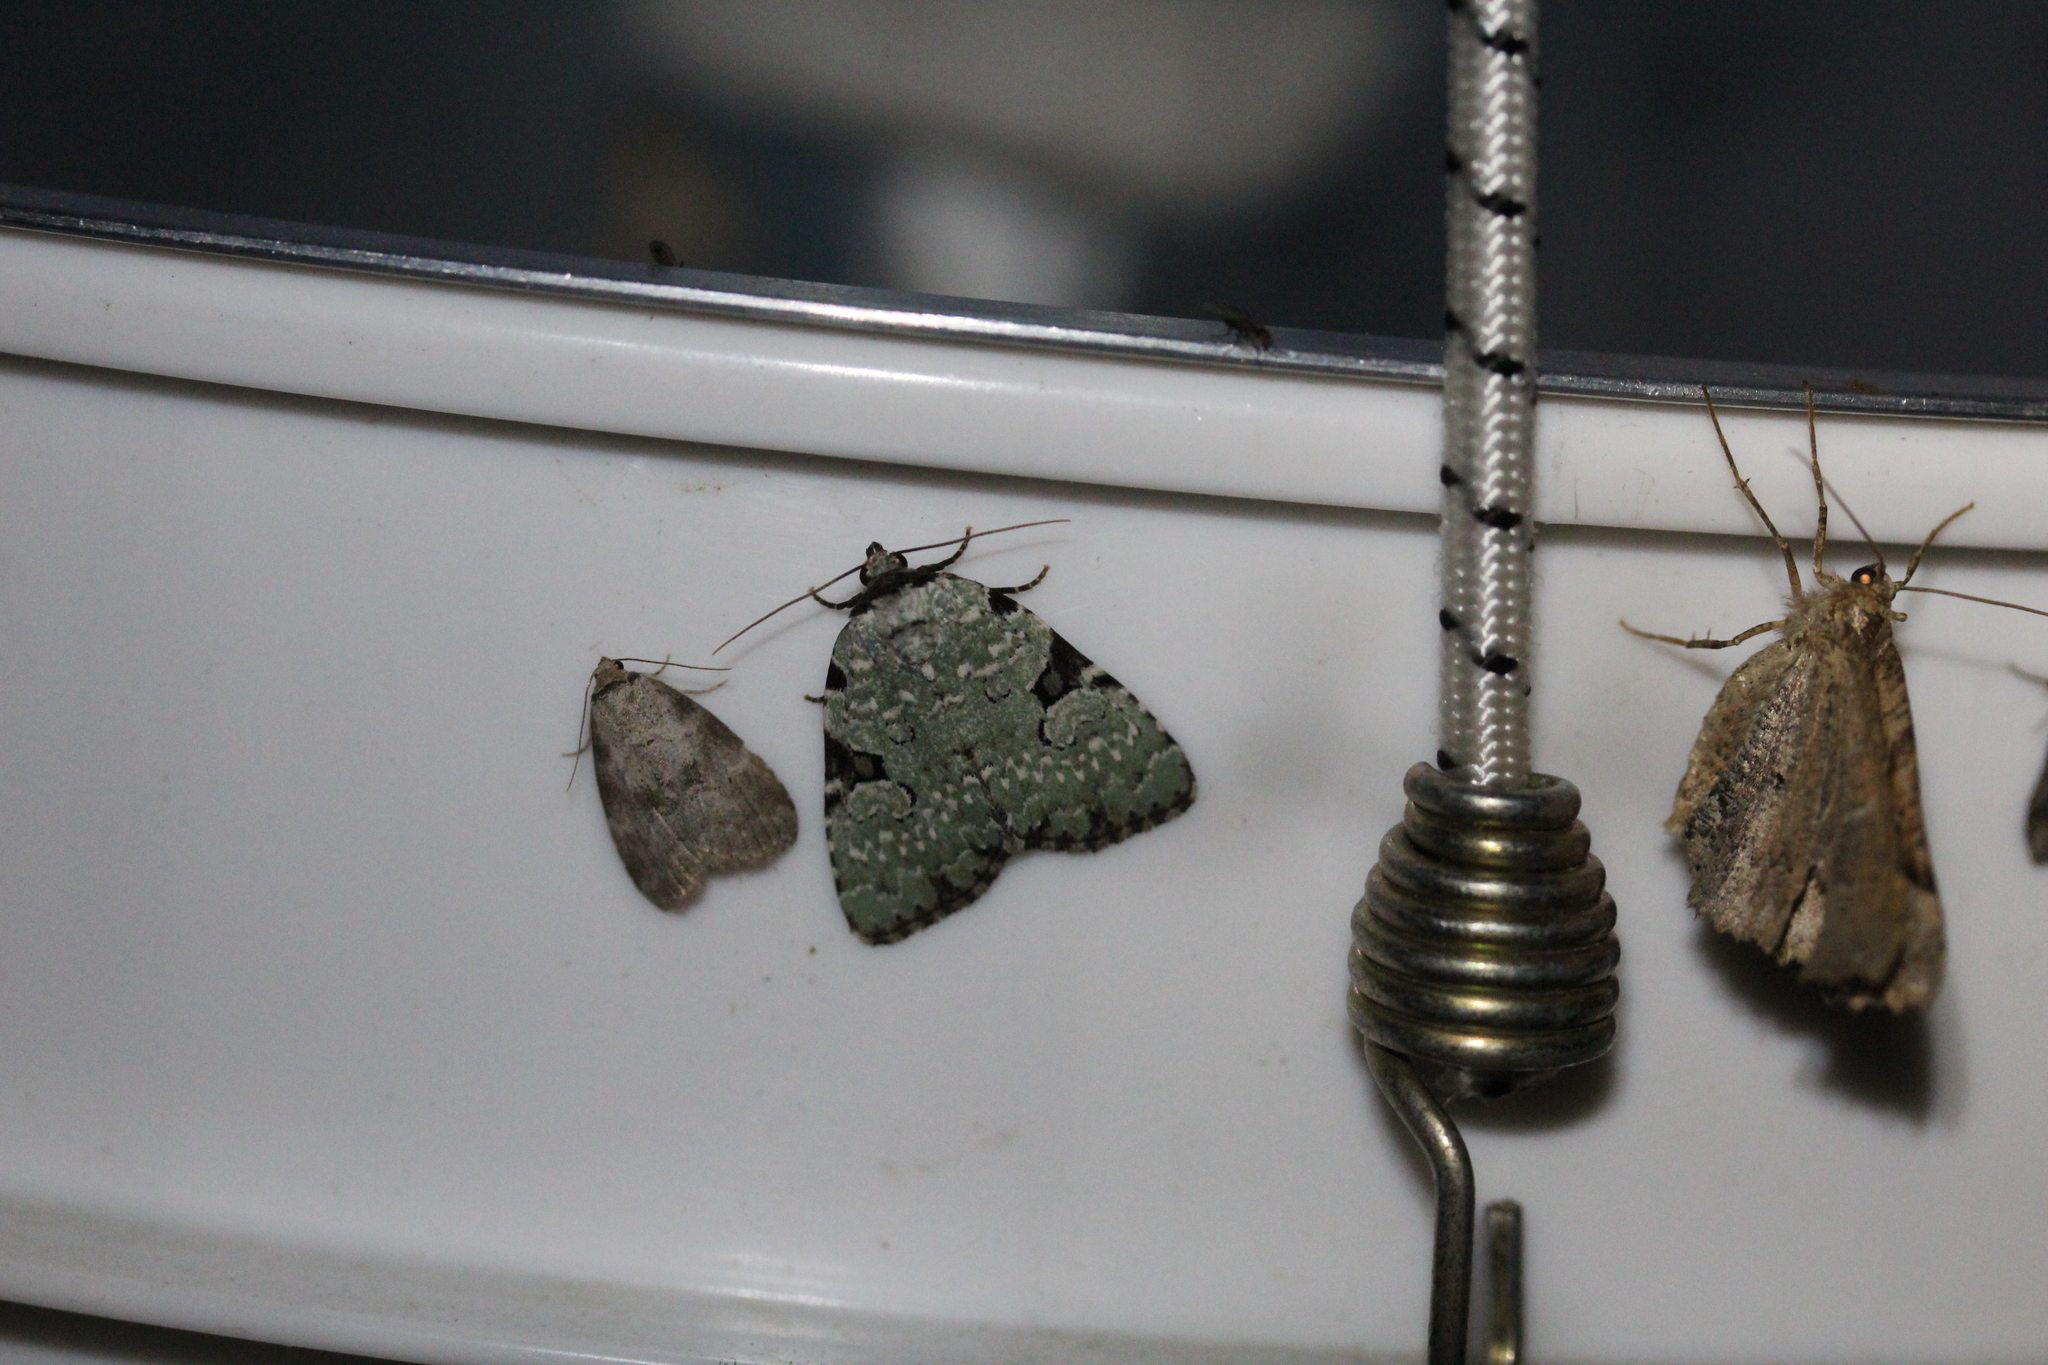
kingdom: Animalia
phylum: Arthropoda
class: Insecta
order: Lepidoptera
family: Noctuidae
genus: Leuconycta
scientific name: Leuconycta diphteroides
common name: Green leuconycta moth
